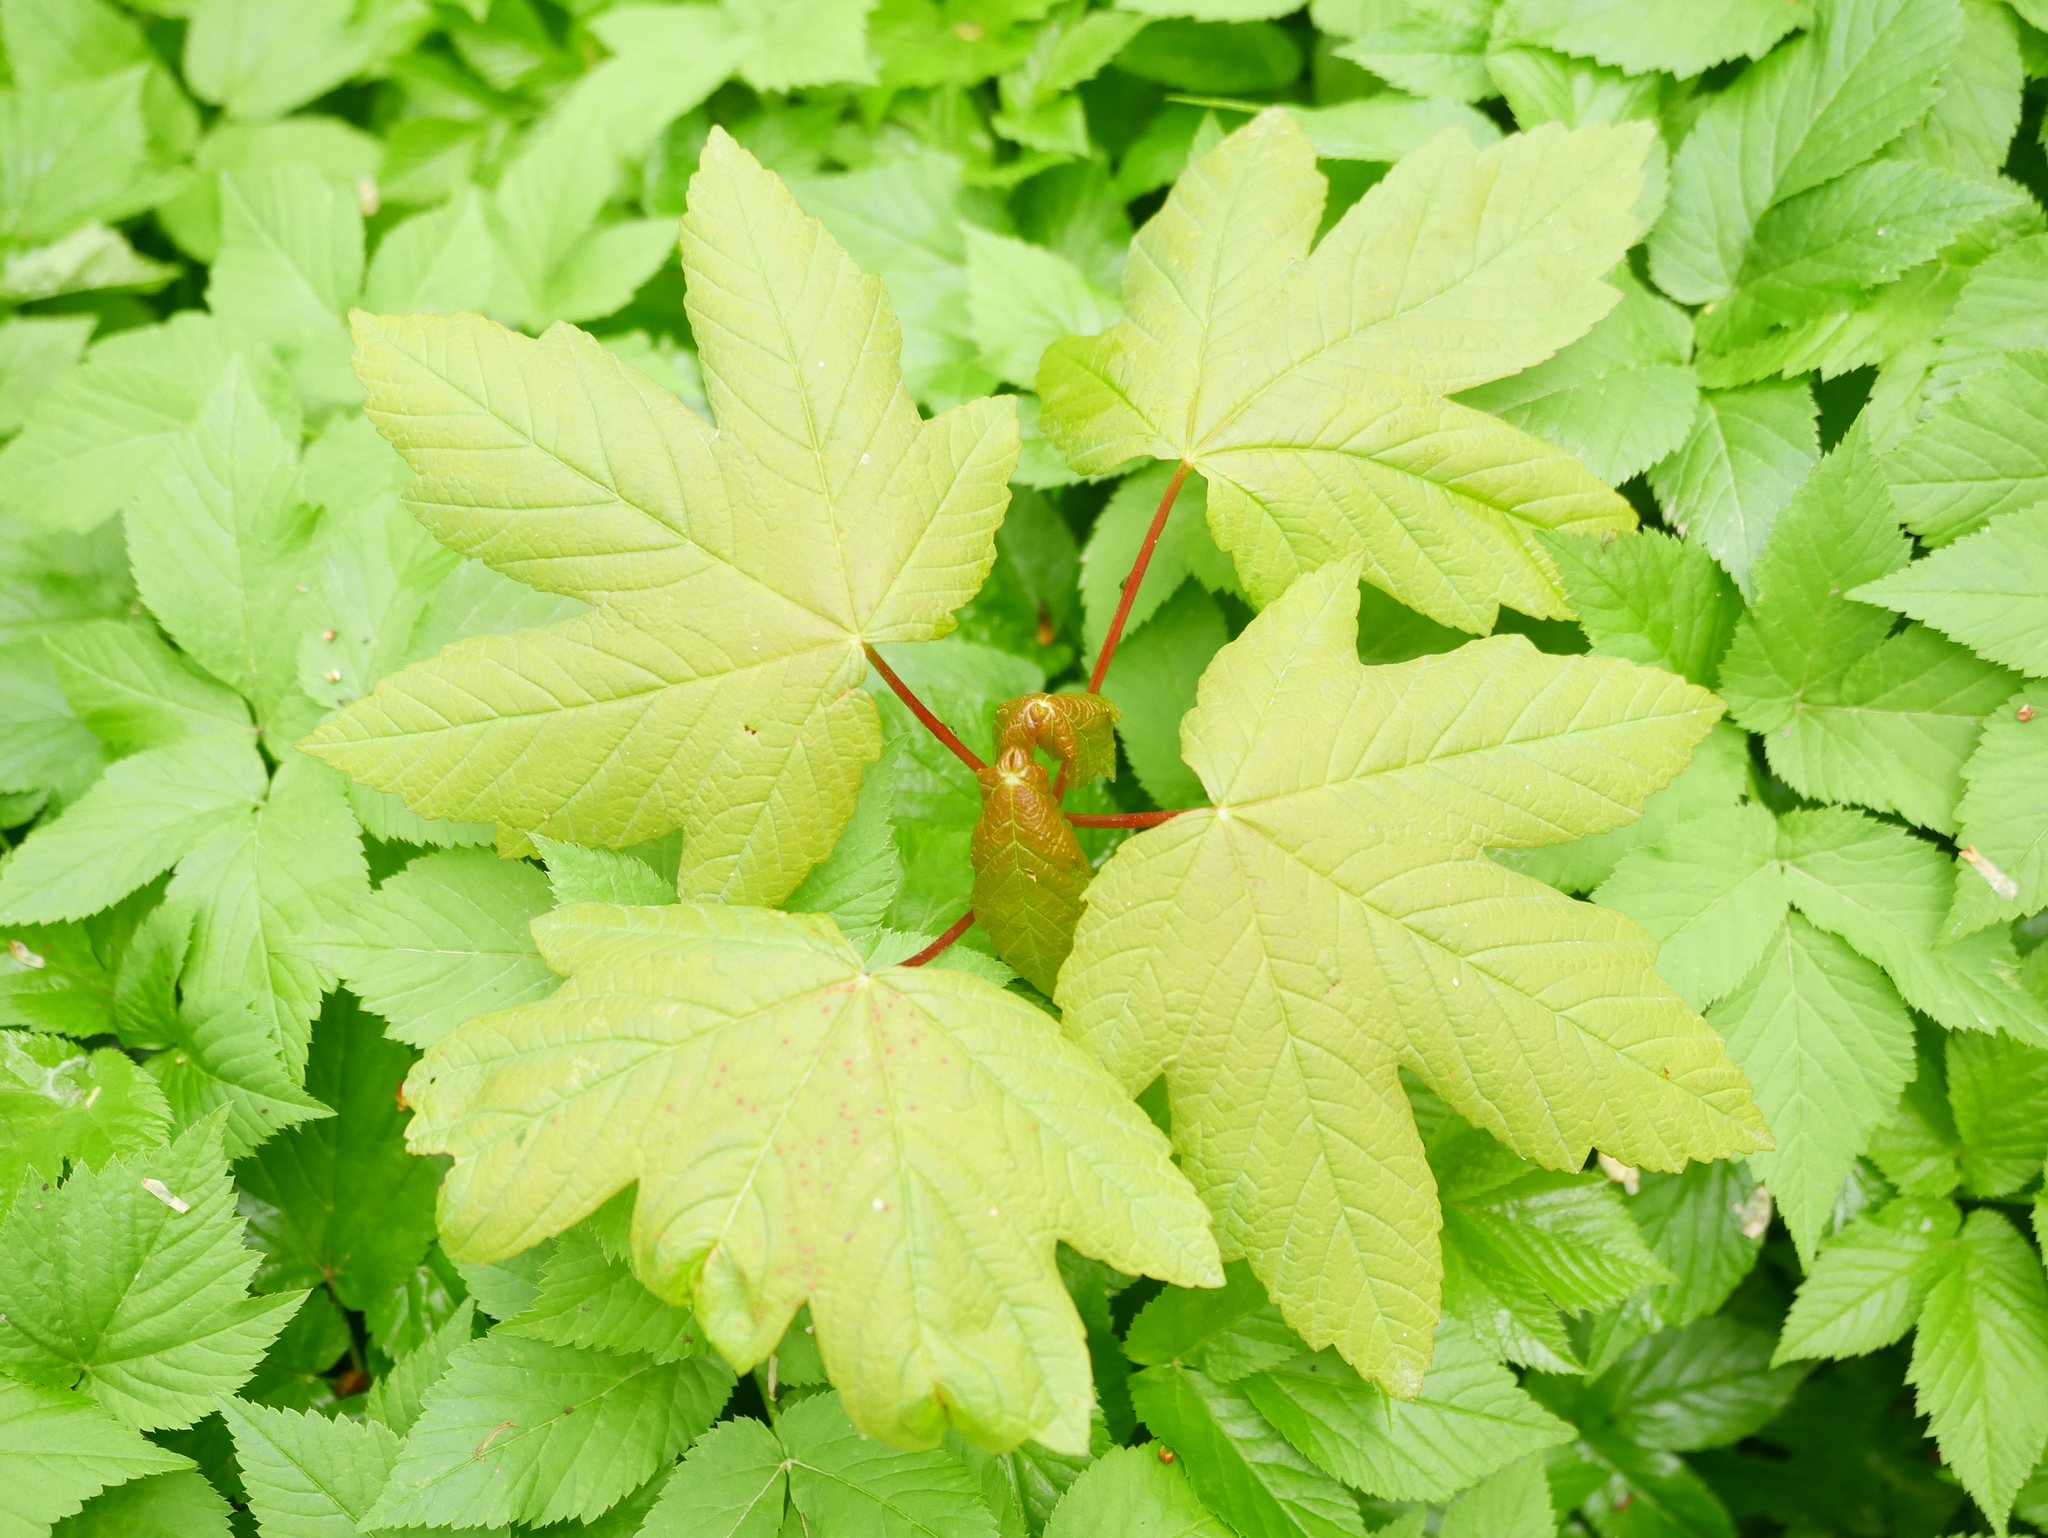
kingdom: Plantae
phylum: Tracheophyta
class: Magnoliopsida
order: Sapindales
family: Sapindaceae
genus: Acer
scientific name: Acer pseudoplatanus
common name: Sycamore
